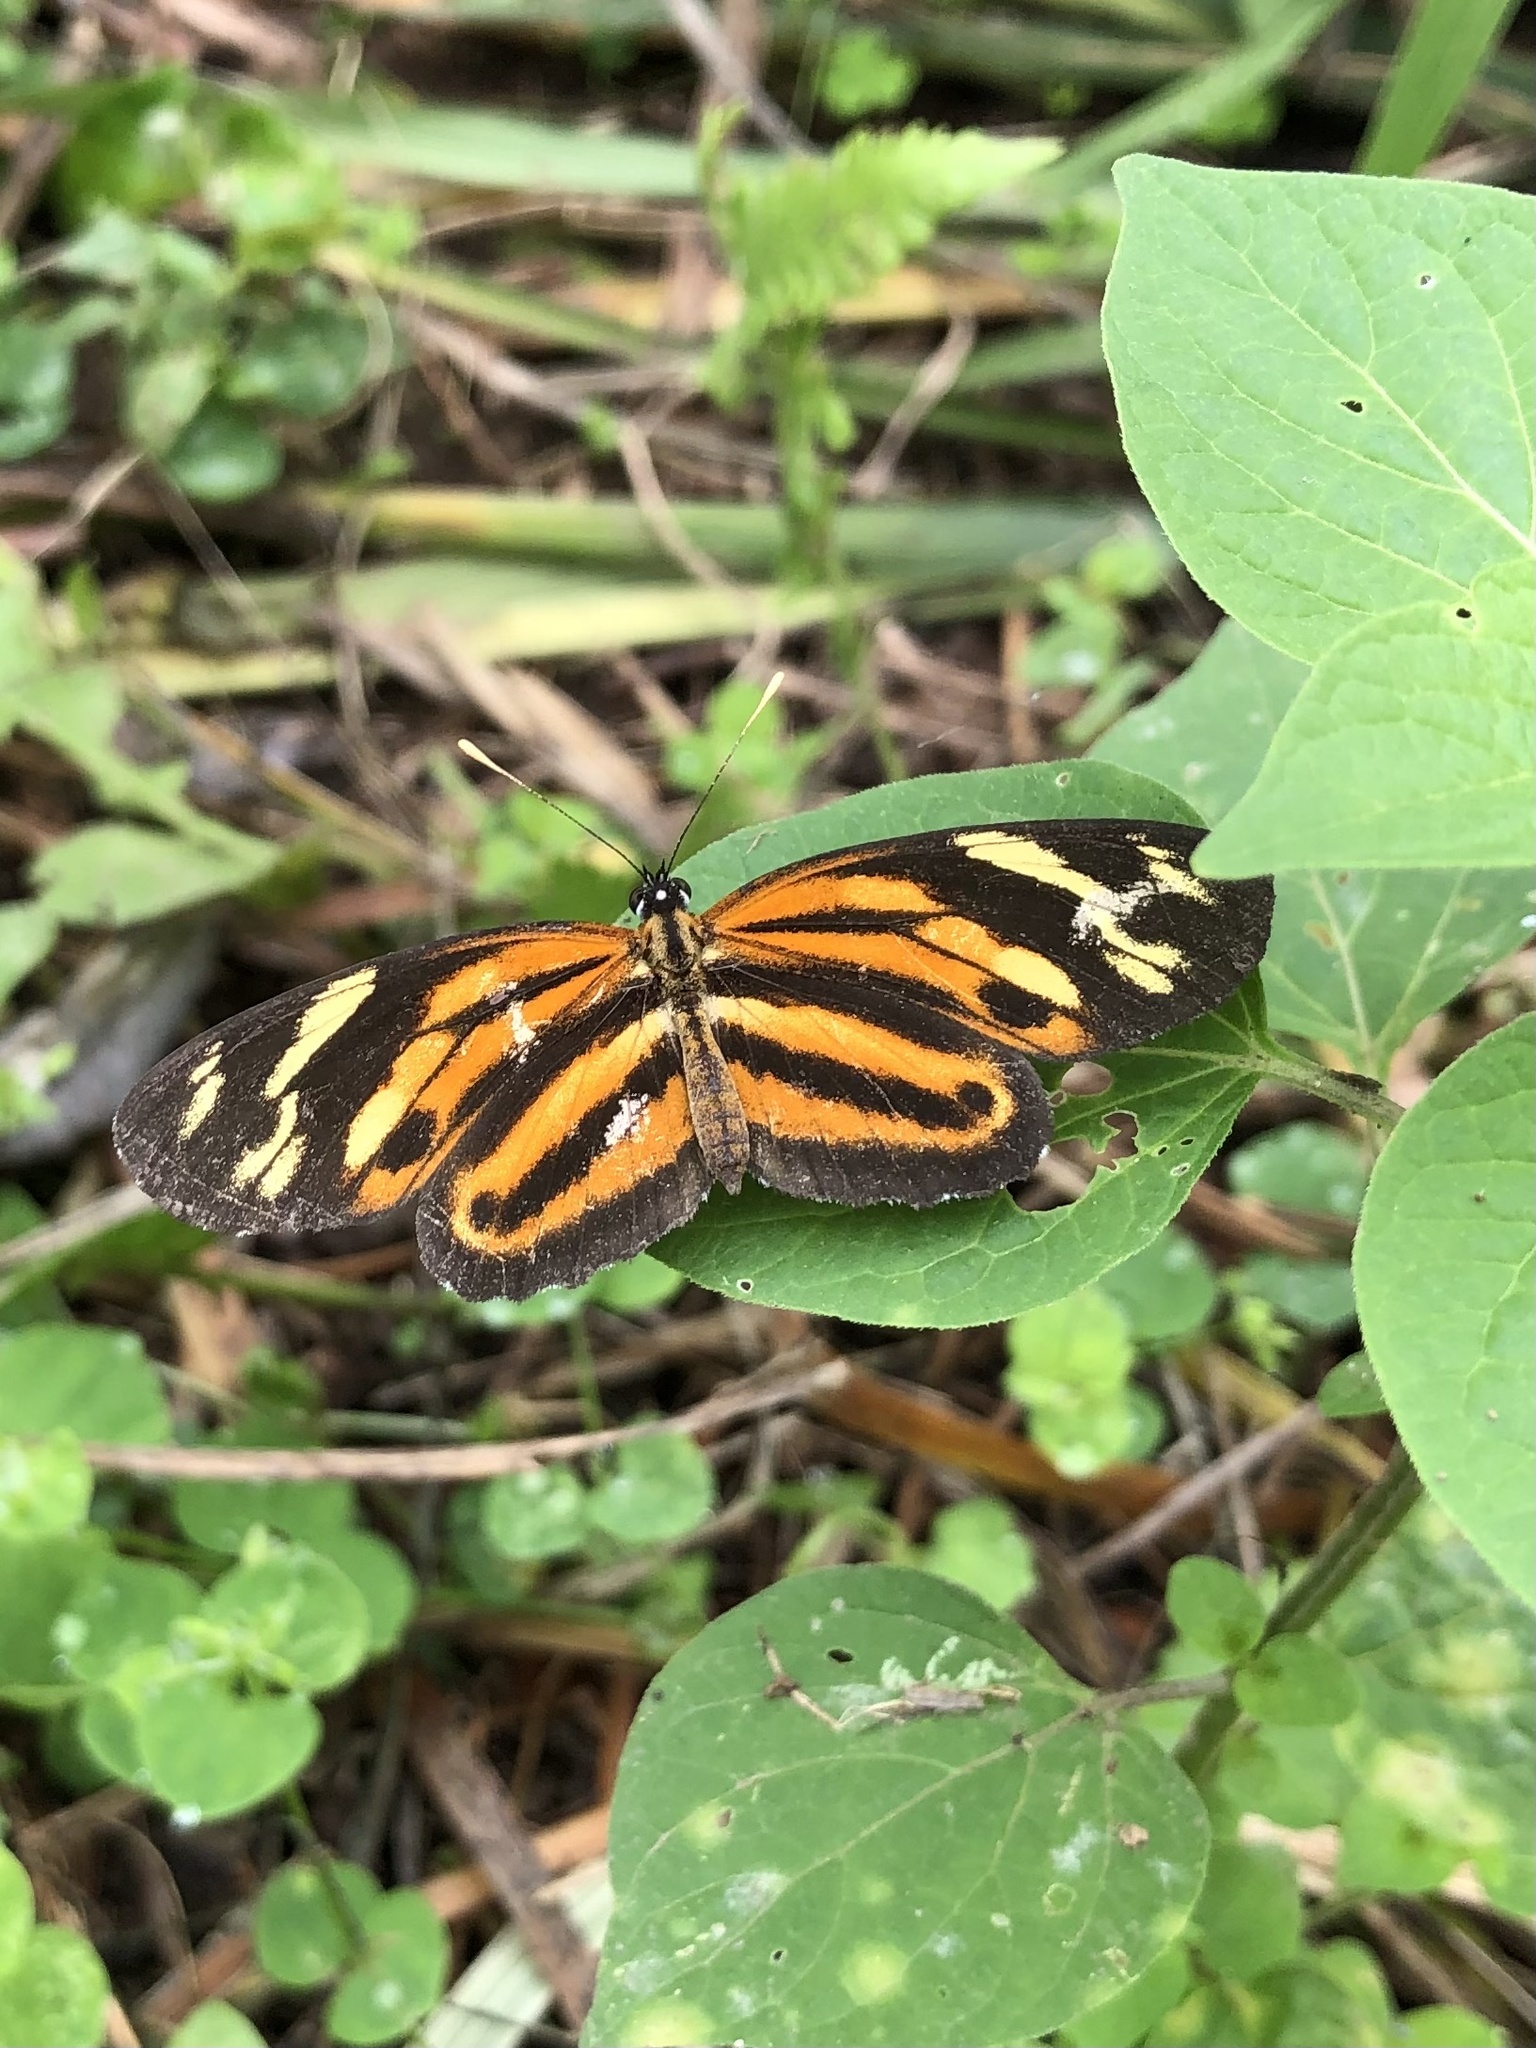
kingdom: Animalia
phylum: Arthropoda
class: Insecta
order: Lepidoptera
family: Nymphalidae
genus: Eresia
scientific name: Eresia eunice
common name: Tiger crescent
